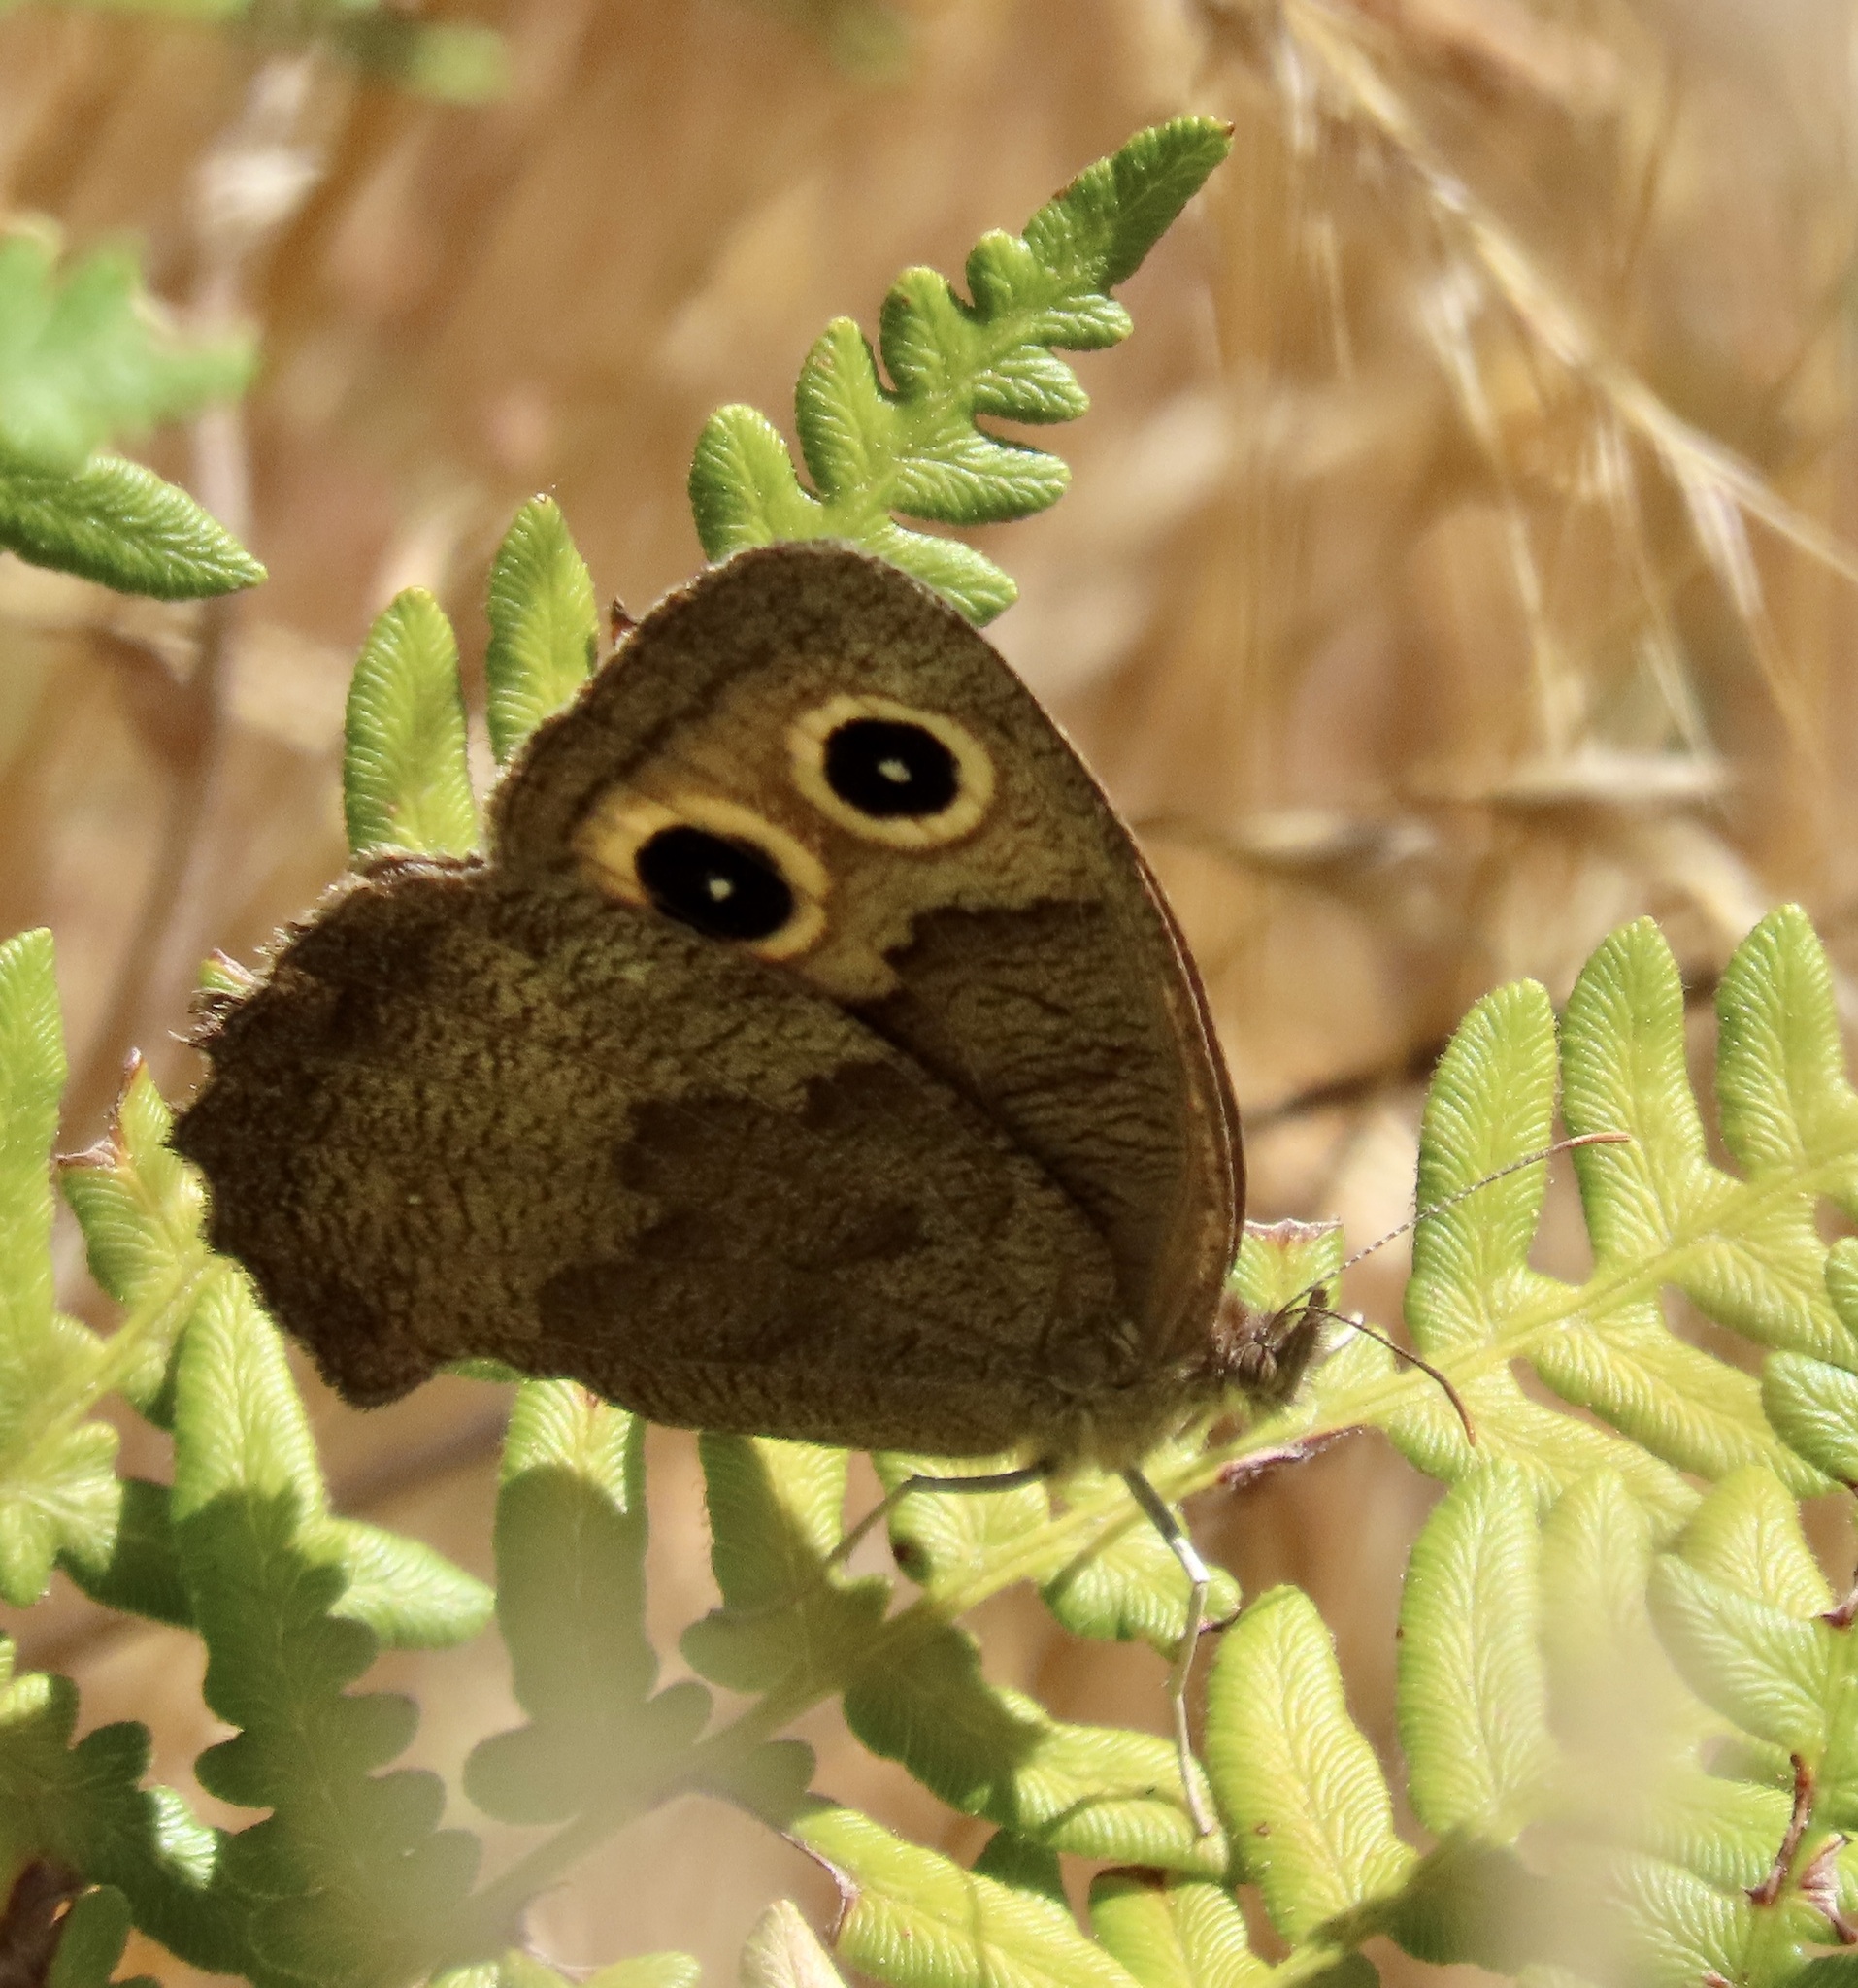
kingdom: Animalia
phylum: Arthropoda
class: Insecta
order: Lepidoptera
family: Nymphalidae
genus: Cercyonis
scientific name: Cercyonis pegala
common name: Common wood-nymph
